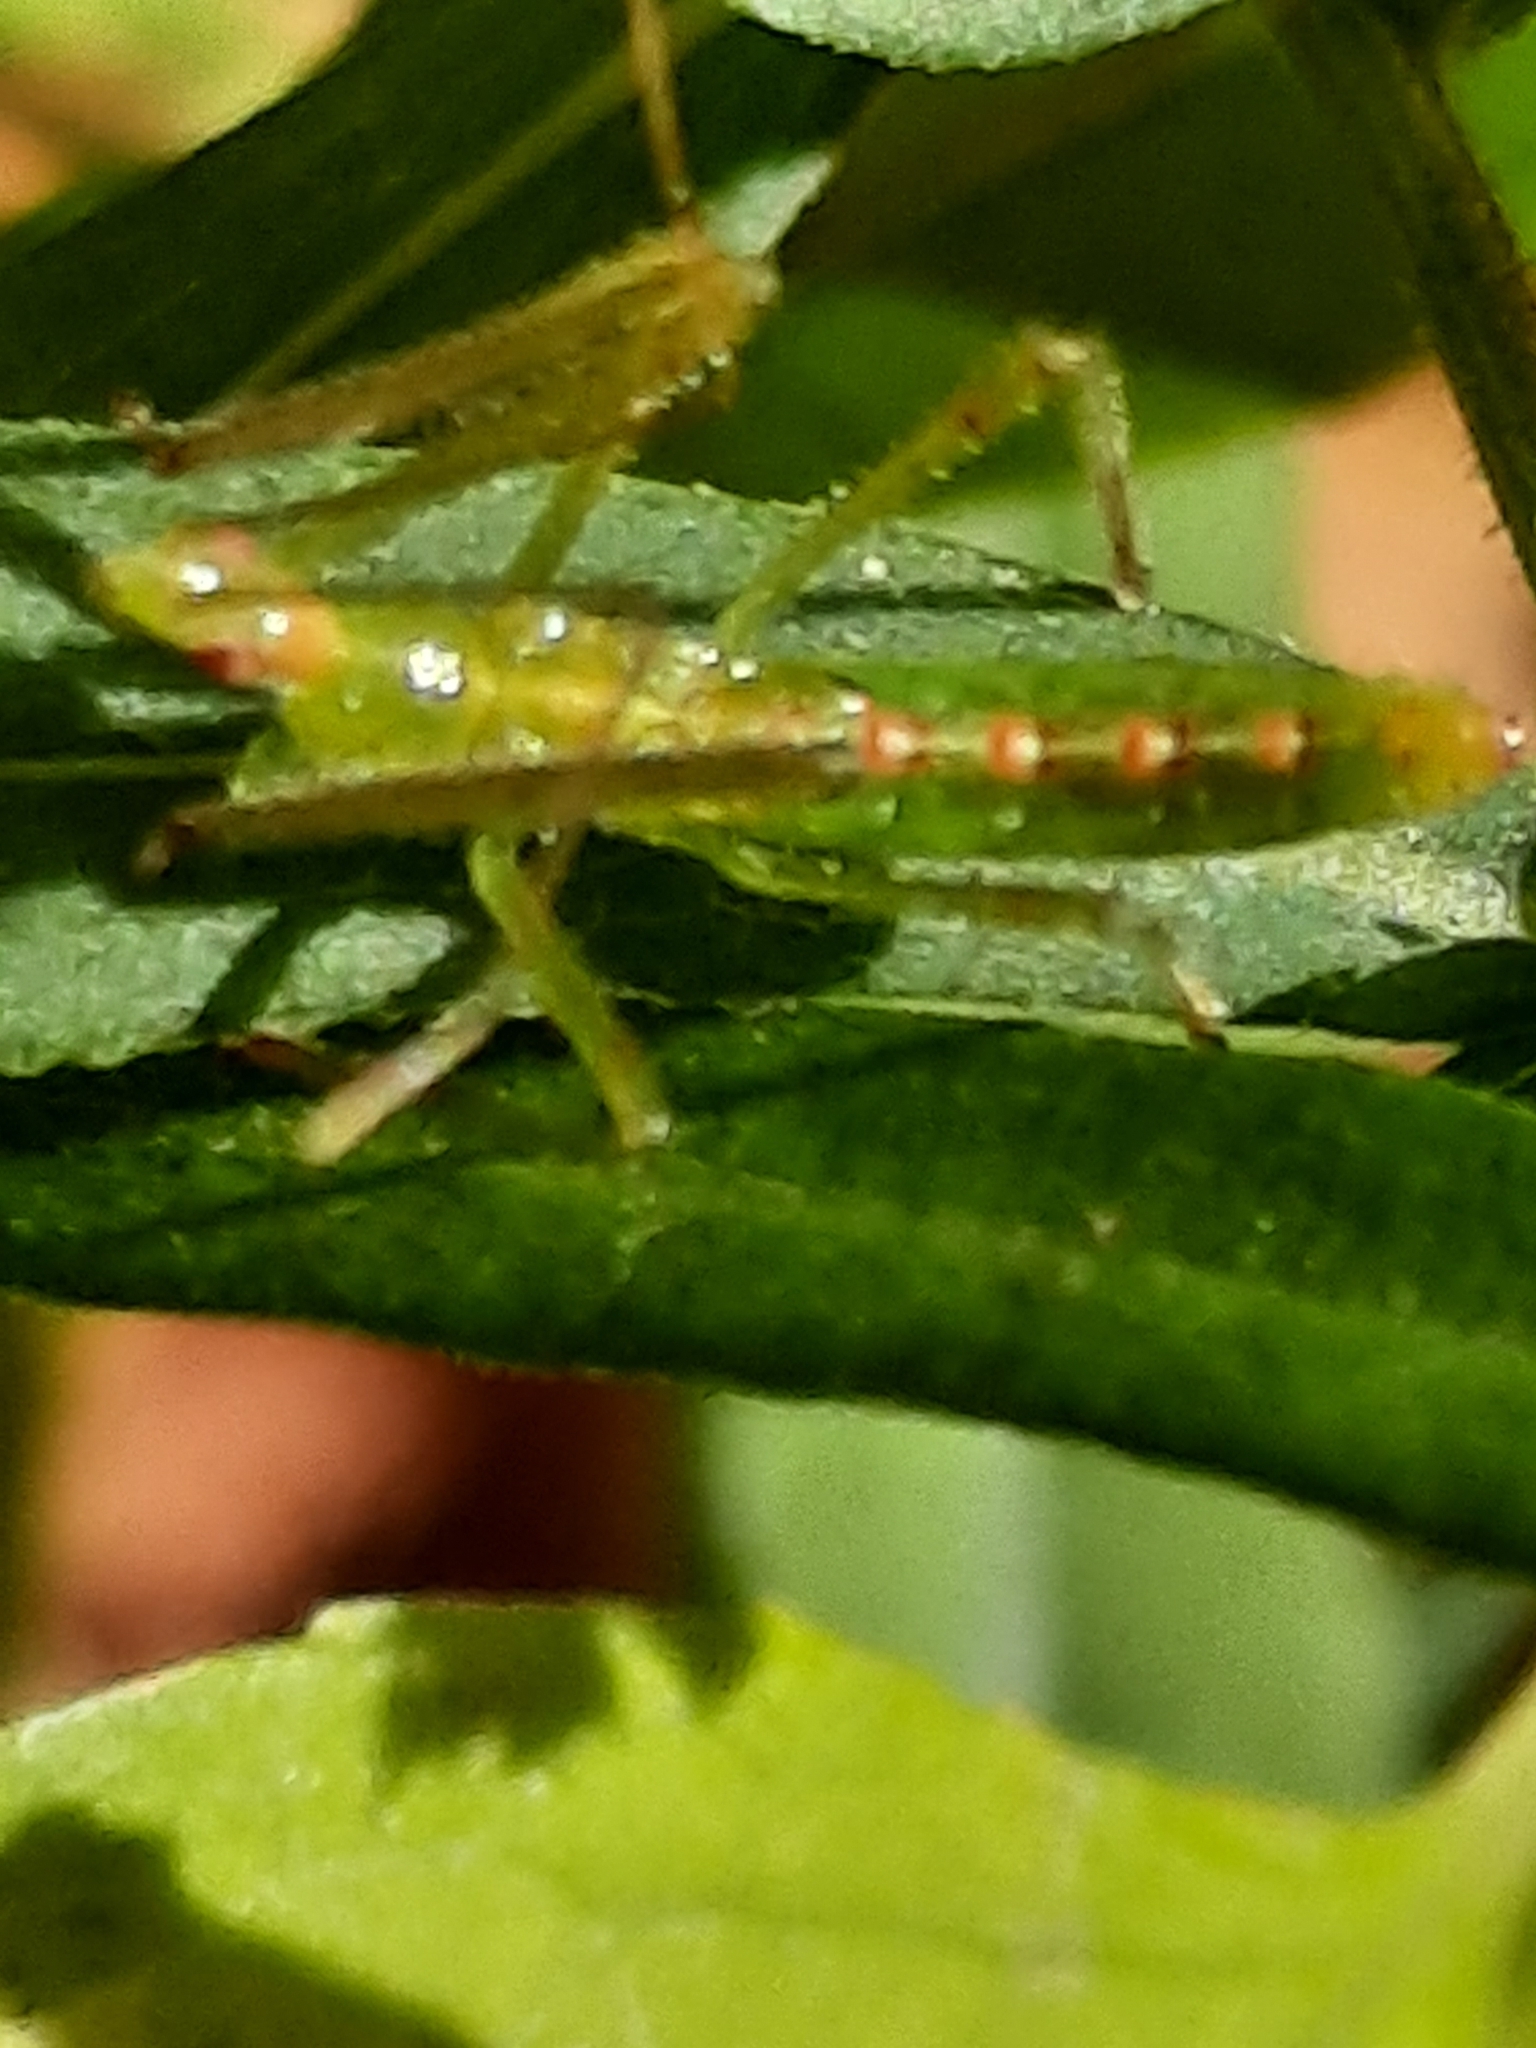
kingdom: Animalia
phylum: Arthropoda
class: Insecta
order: Hemiptera
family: Reduviidae
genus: Zelus
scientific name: Zelus luridus
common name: Pale green assassin bug
